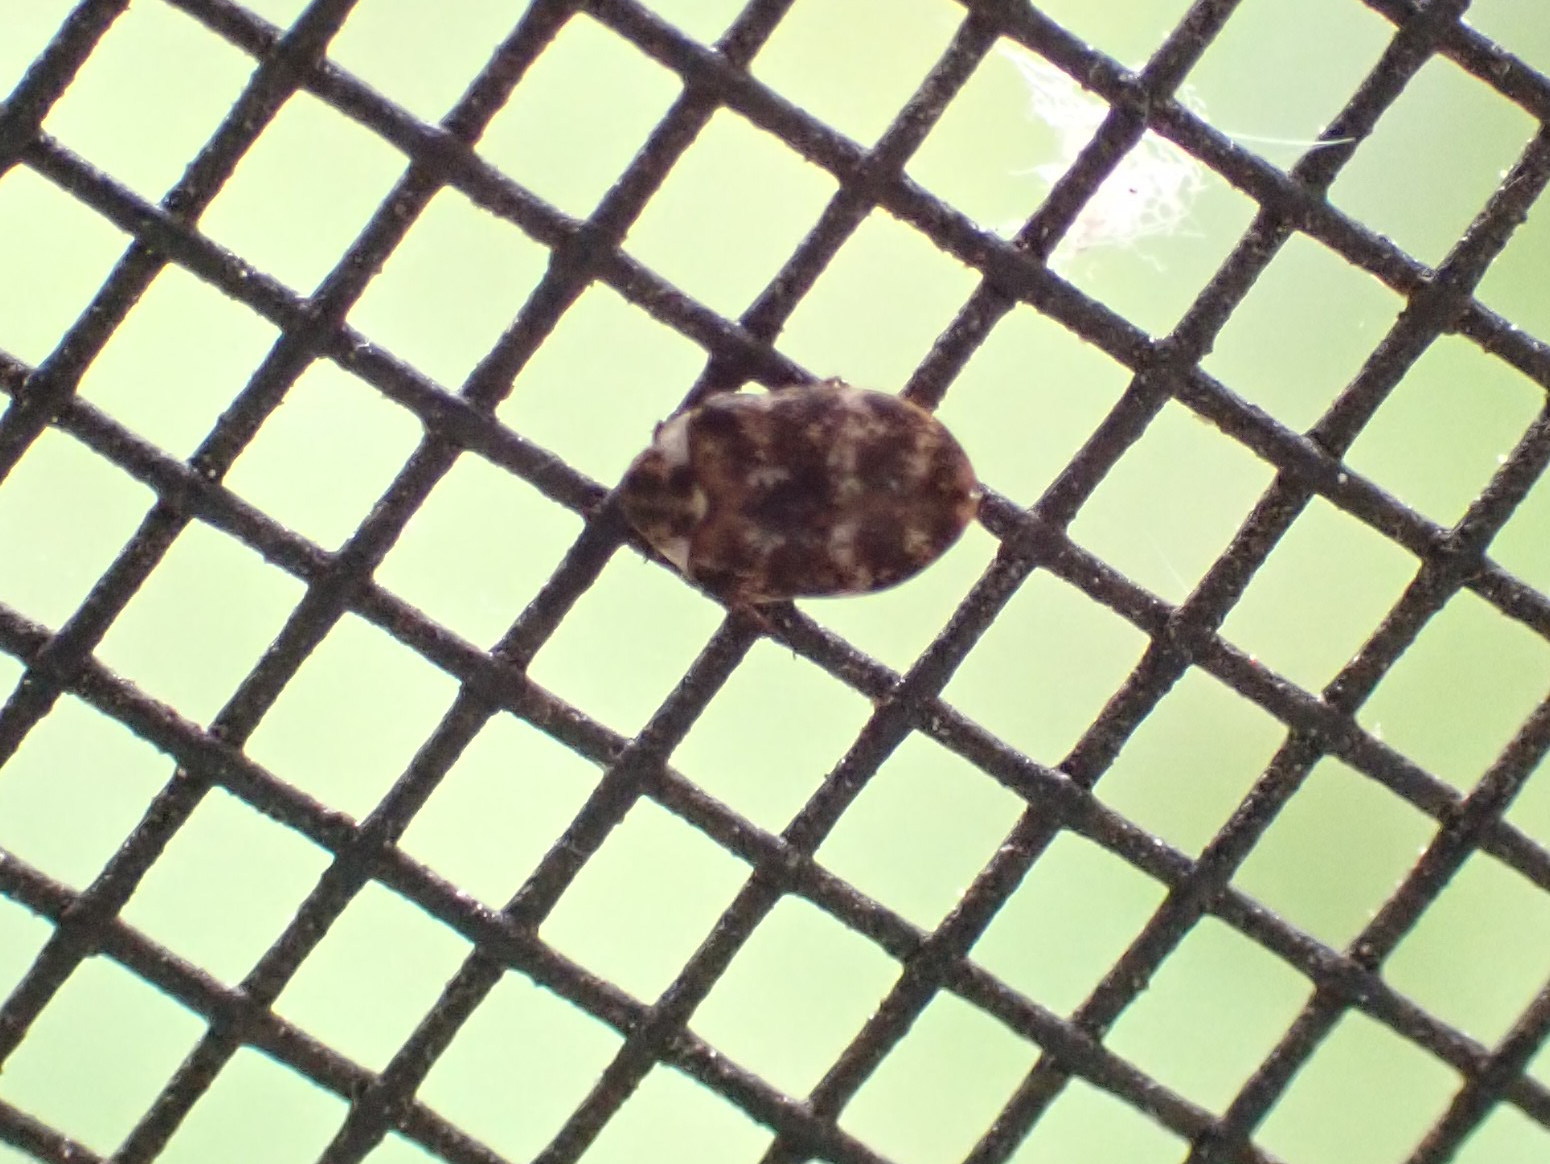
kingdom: Animalia
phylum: Arthropoda
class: Insecta
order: Coleoptera
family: Dermestidae
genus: Anthrenus
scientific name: Anthrenus museorum
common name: Museum beetle
